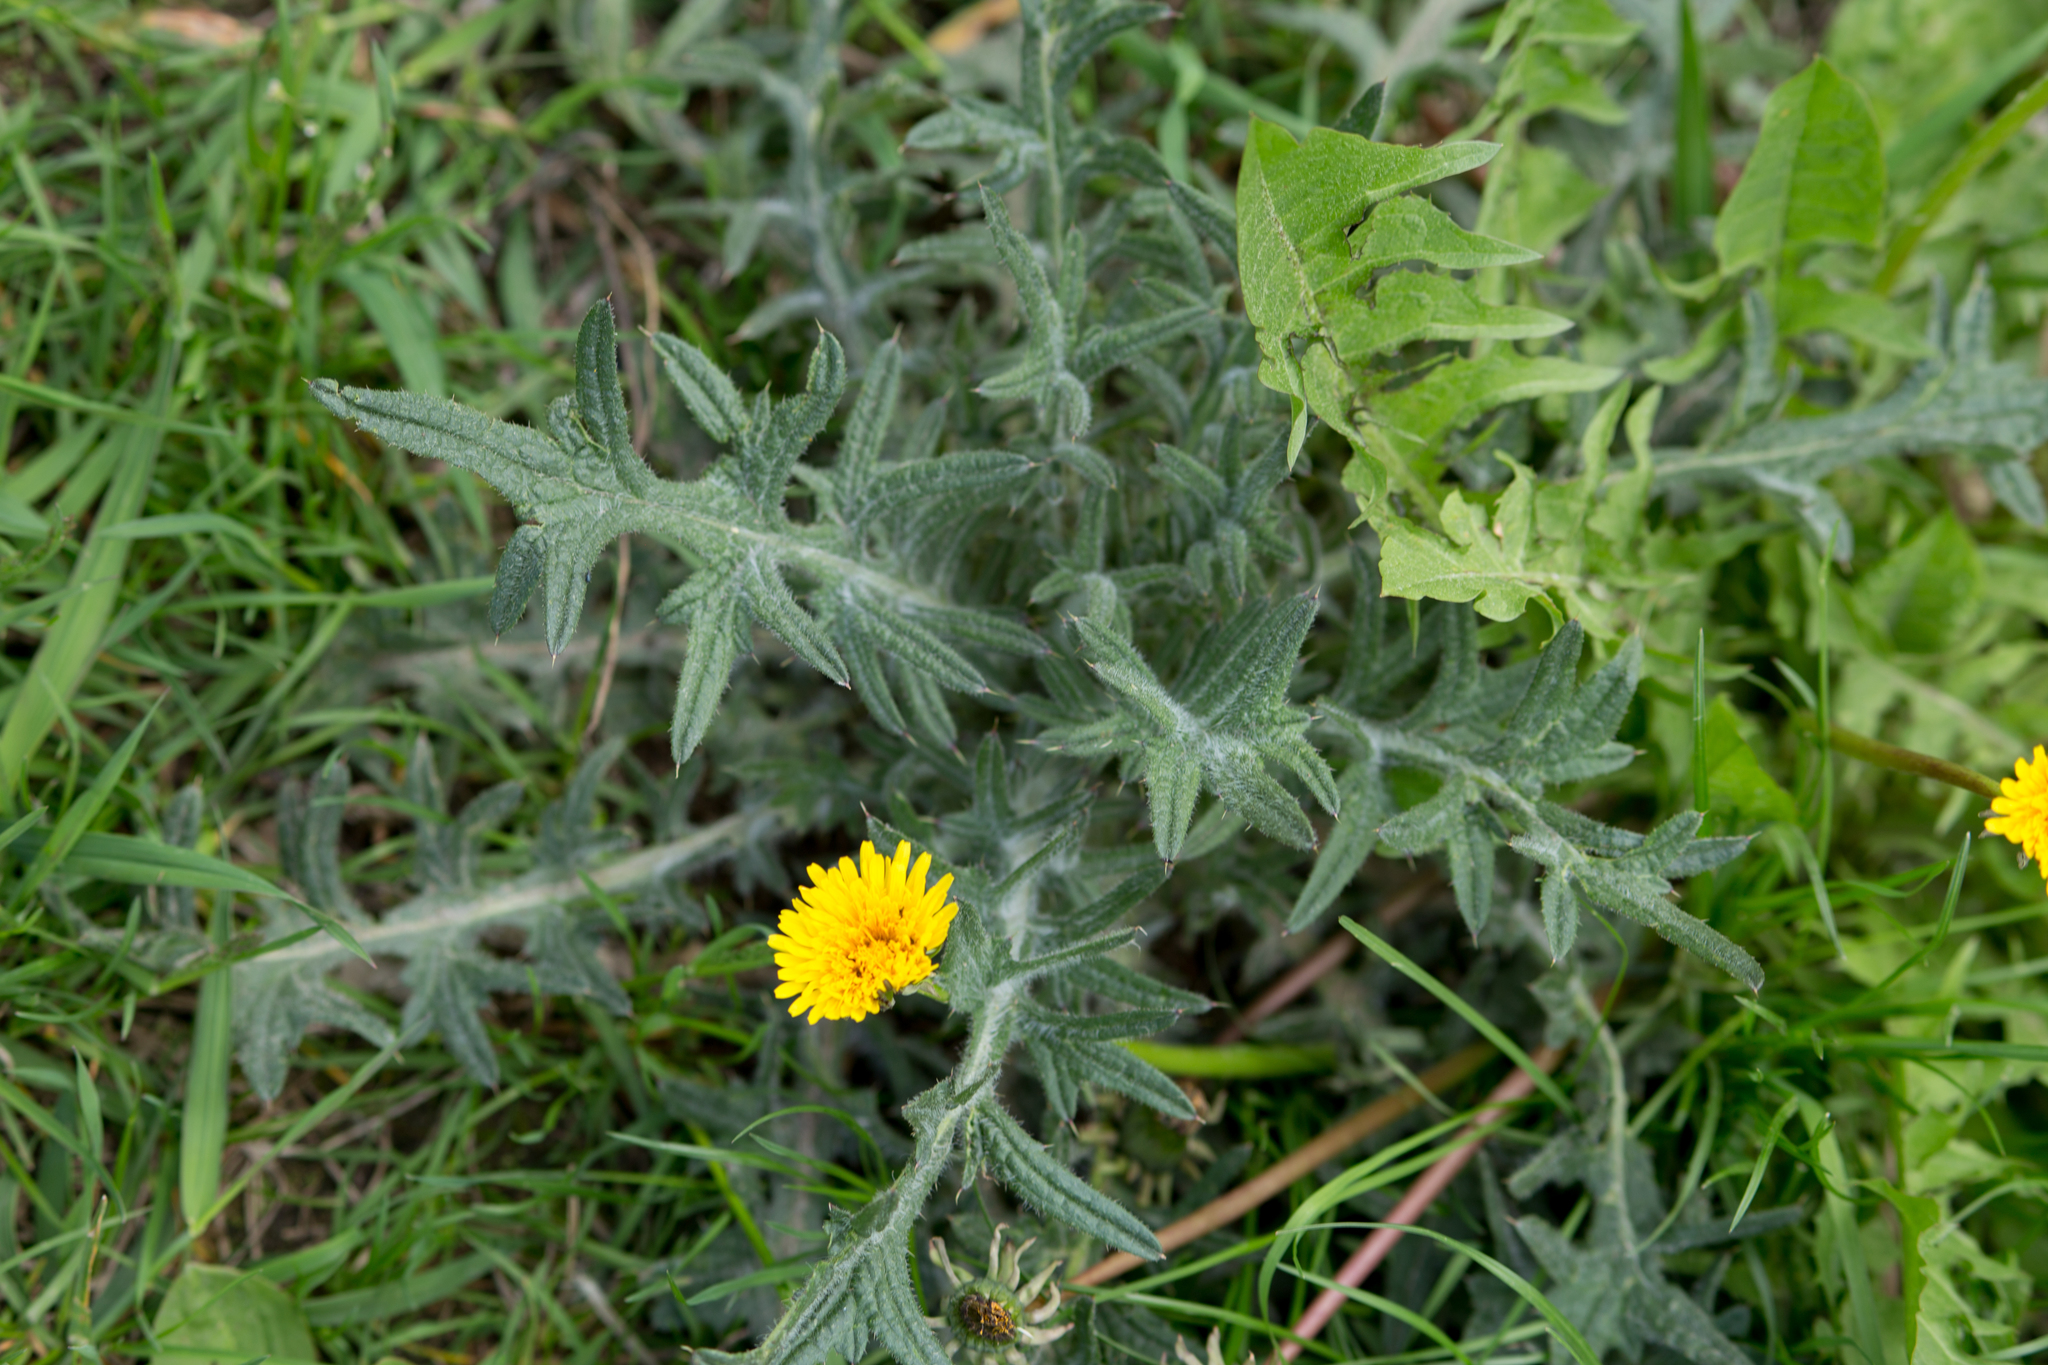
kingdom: Plantae
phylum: Tracheophyta
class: Magnoliopsida
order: Asterales
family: Asteraceae
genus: Cirsium
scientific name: Cirsium vulgare
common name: Bull thistle
